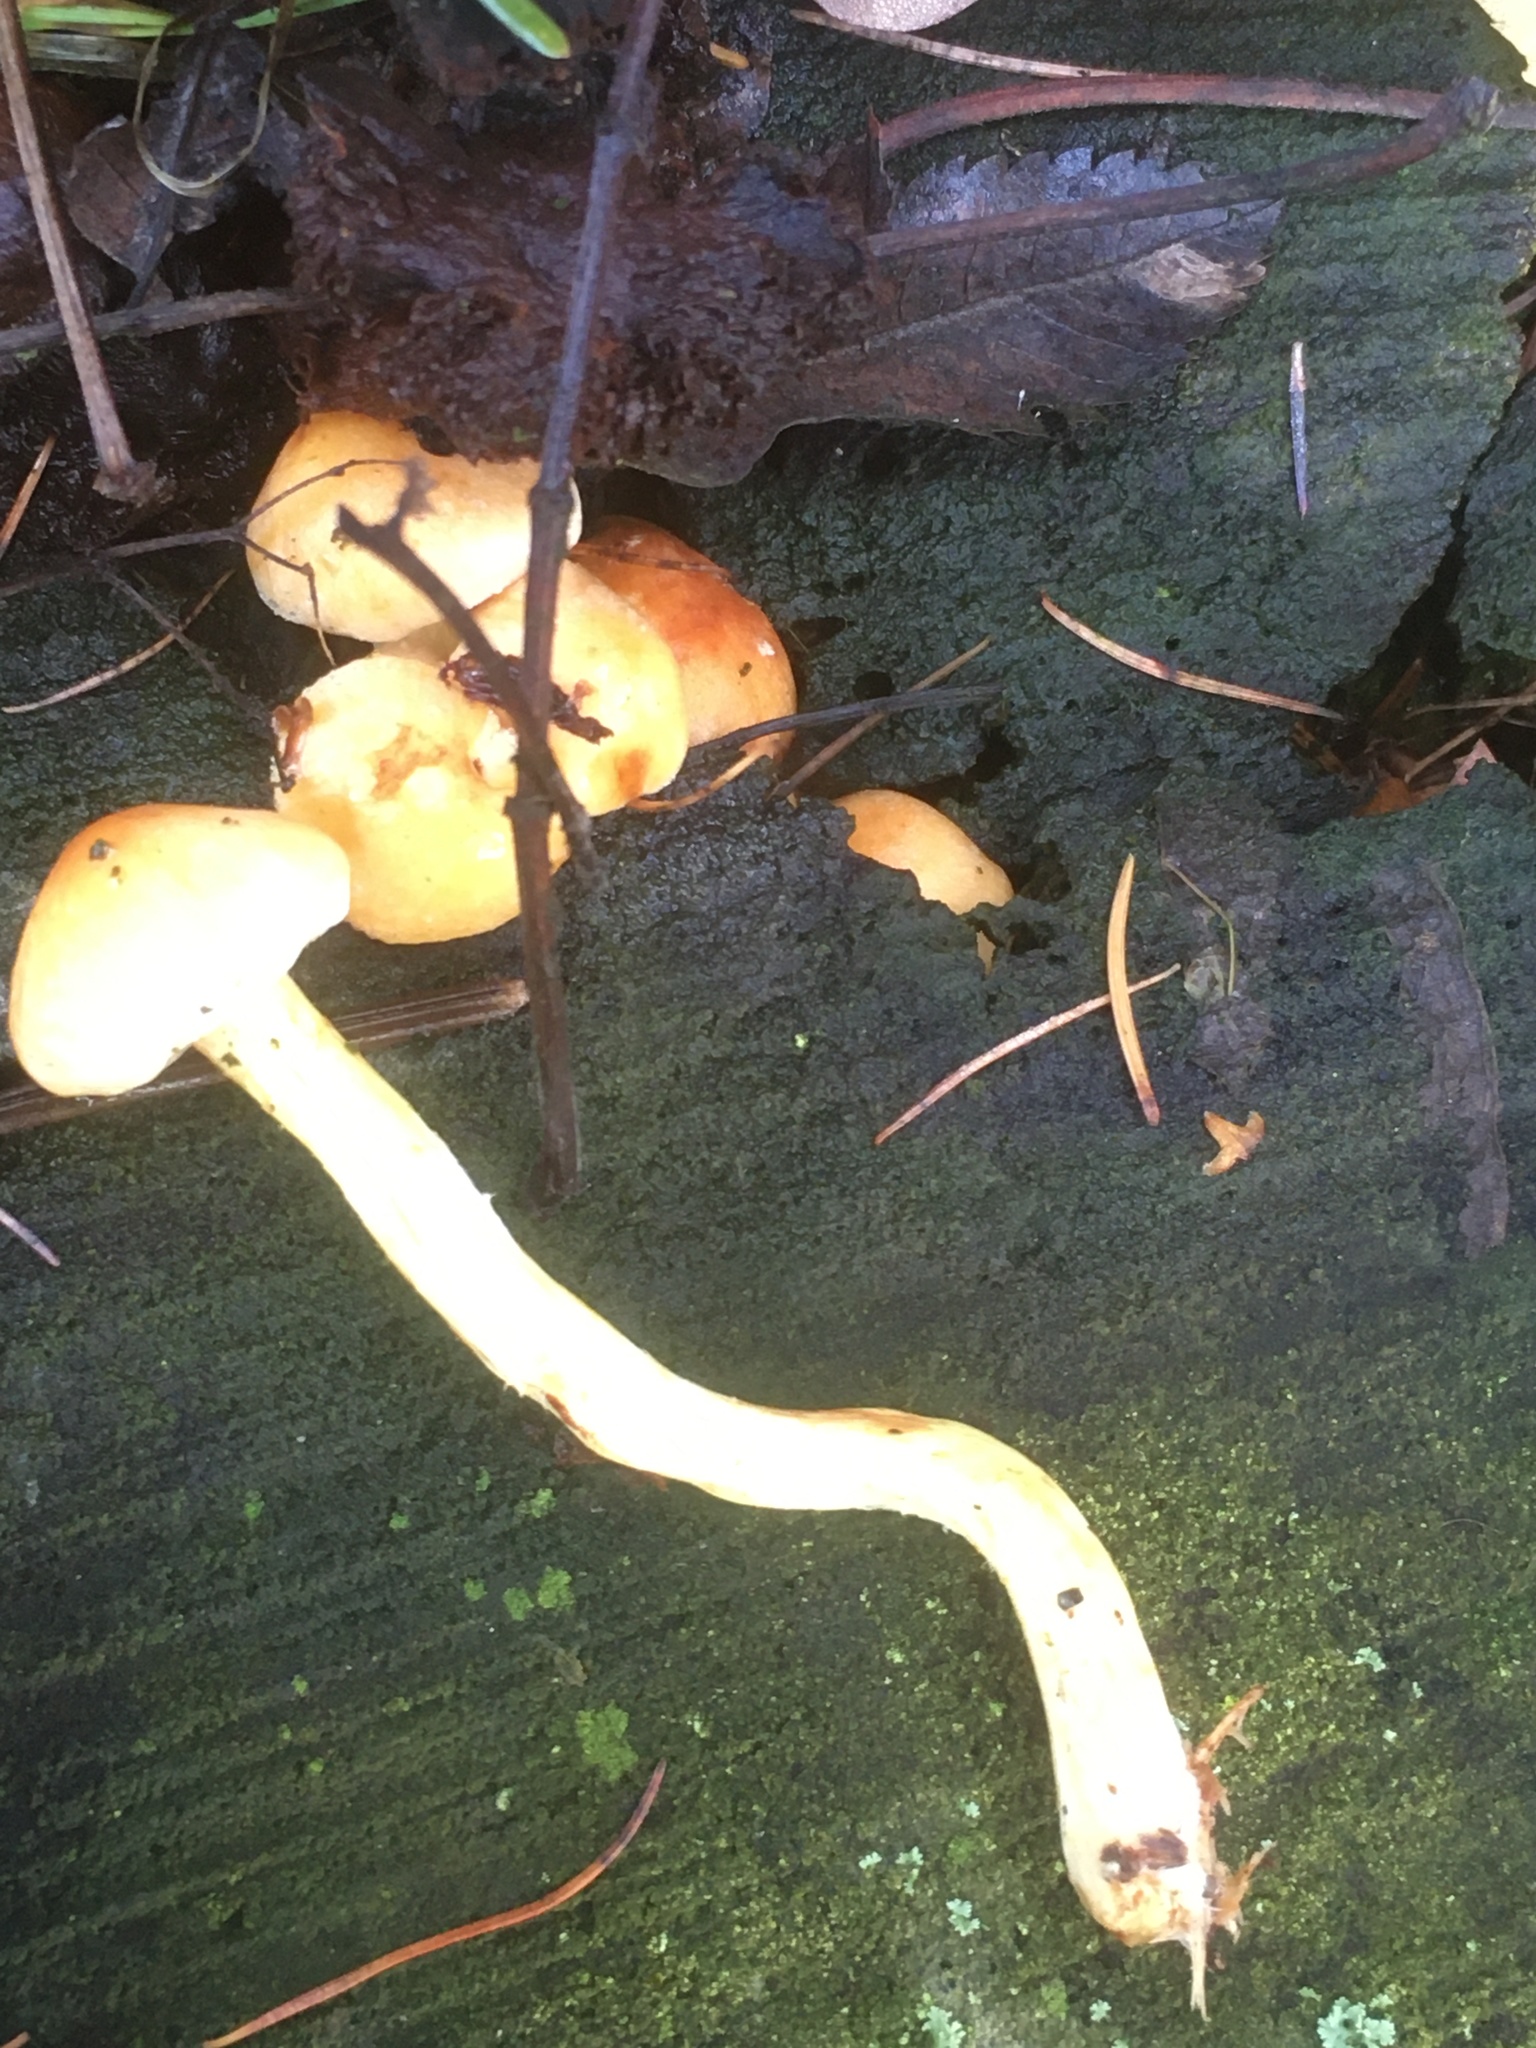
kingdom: Fungi
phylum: Basidiomycota
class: Agaricomycetes
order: Agaricales
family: Strophariaceae
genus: Hypholoma
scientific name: Hypholoma fasciculare
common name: Sulphur tuft
